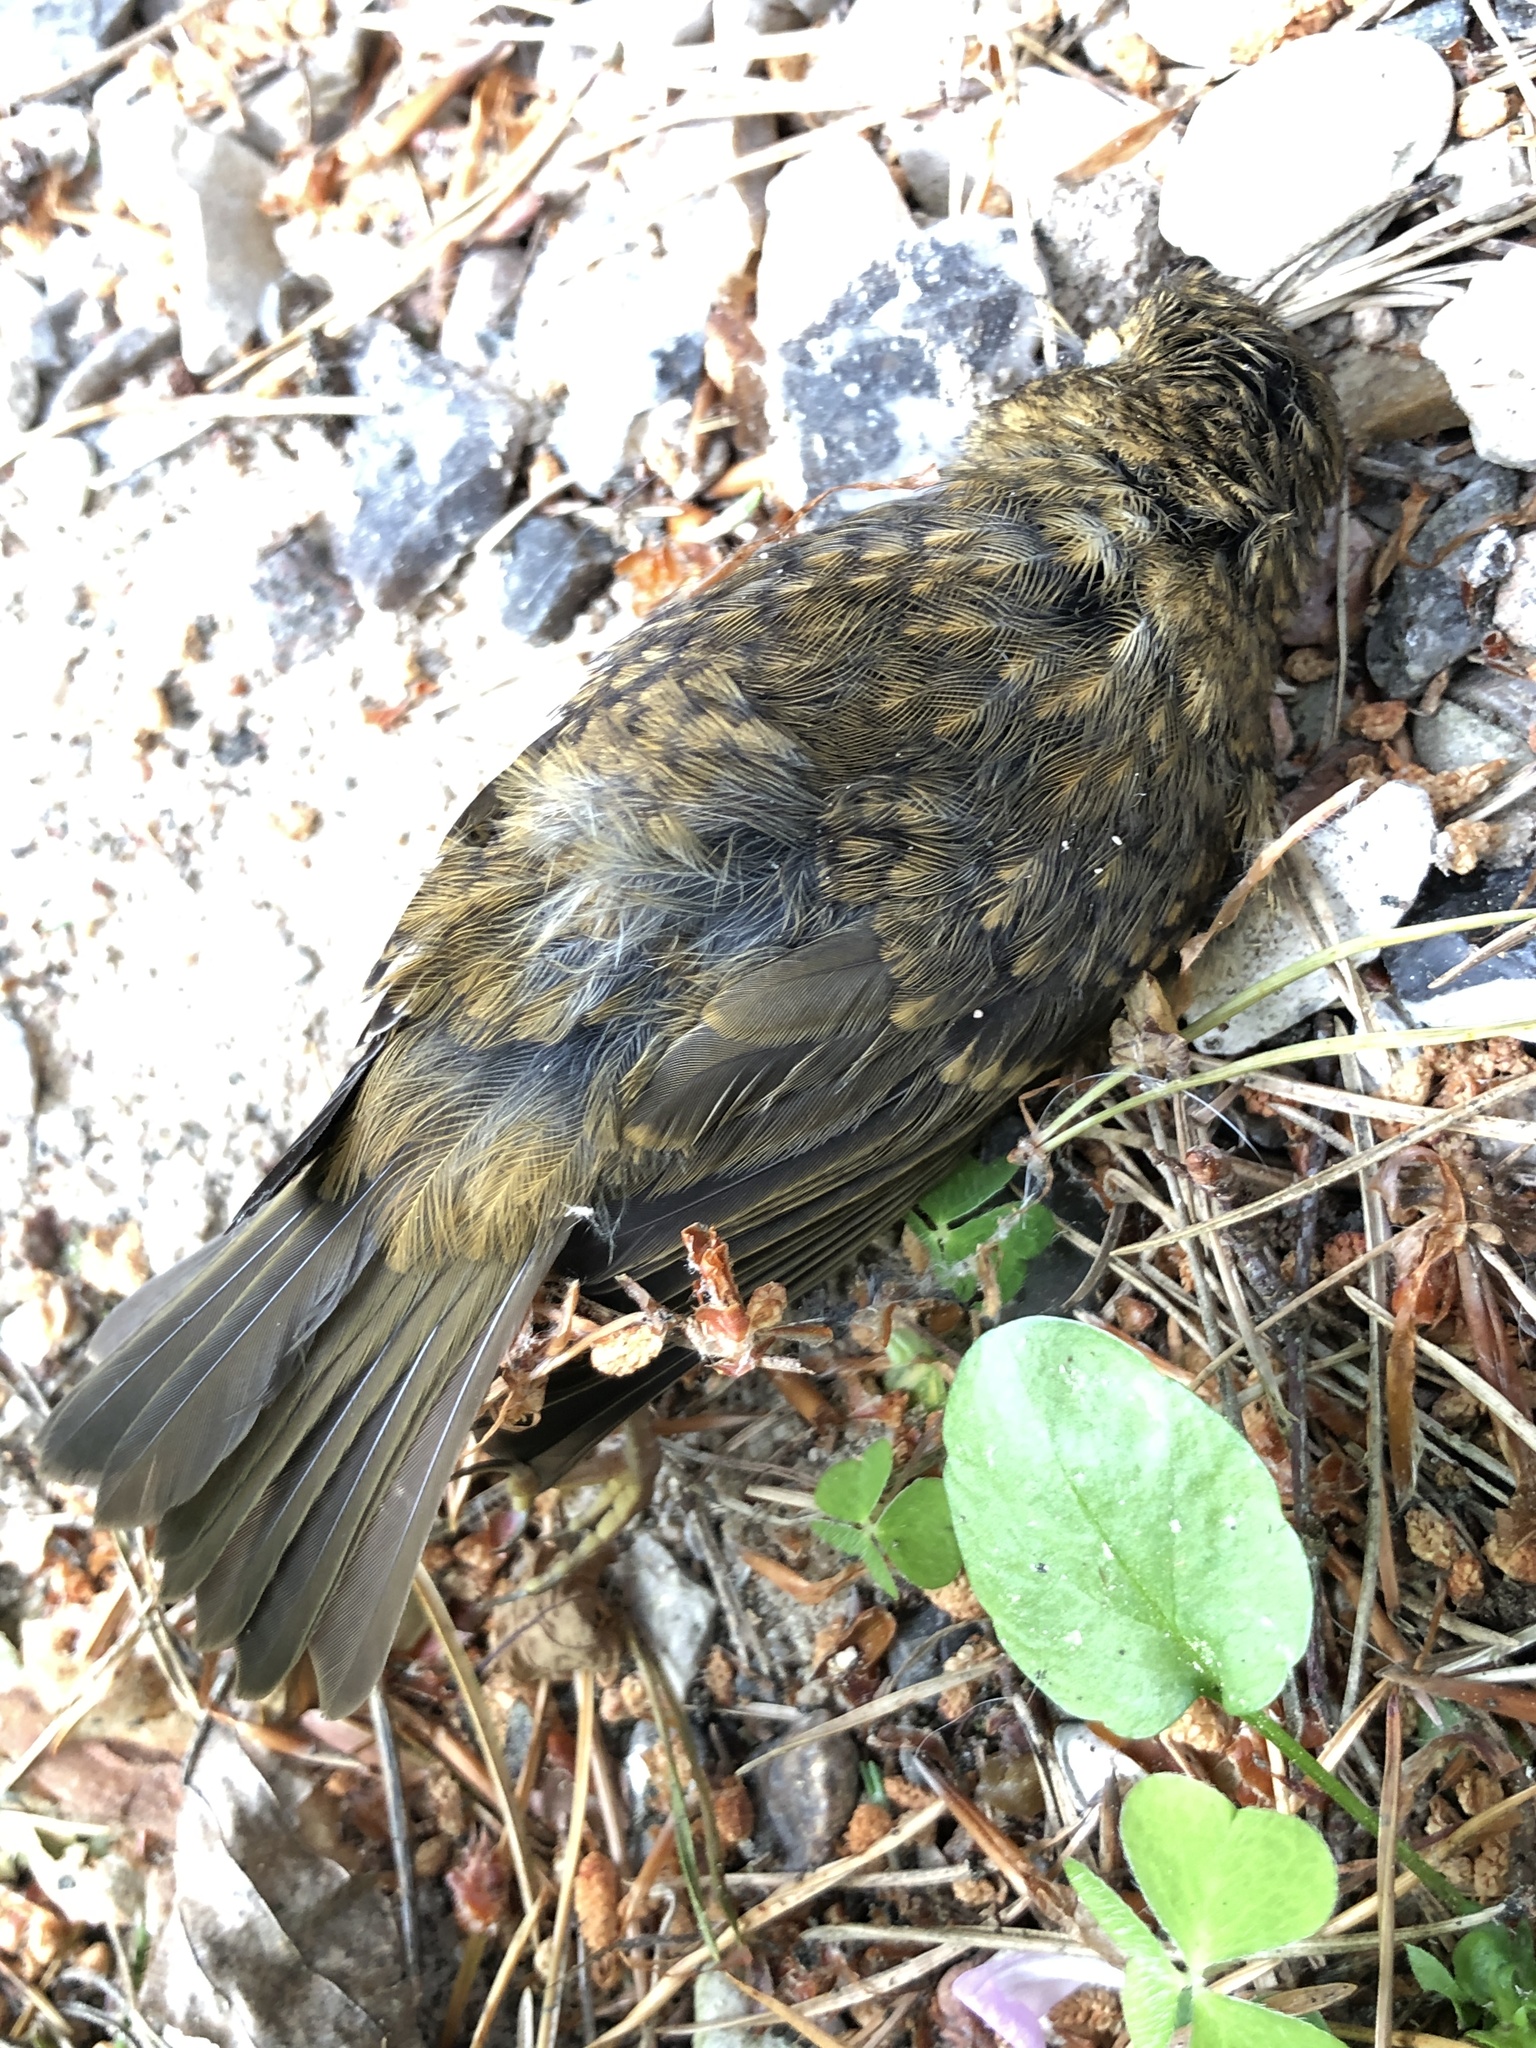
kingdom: Animalia
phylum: Chordata
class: Aves
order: Passeriformes
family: Muscicapidae
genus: Erithacus
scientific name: Erithacus rubecula
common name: European robin
